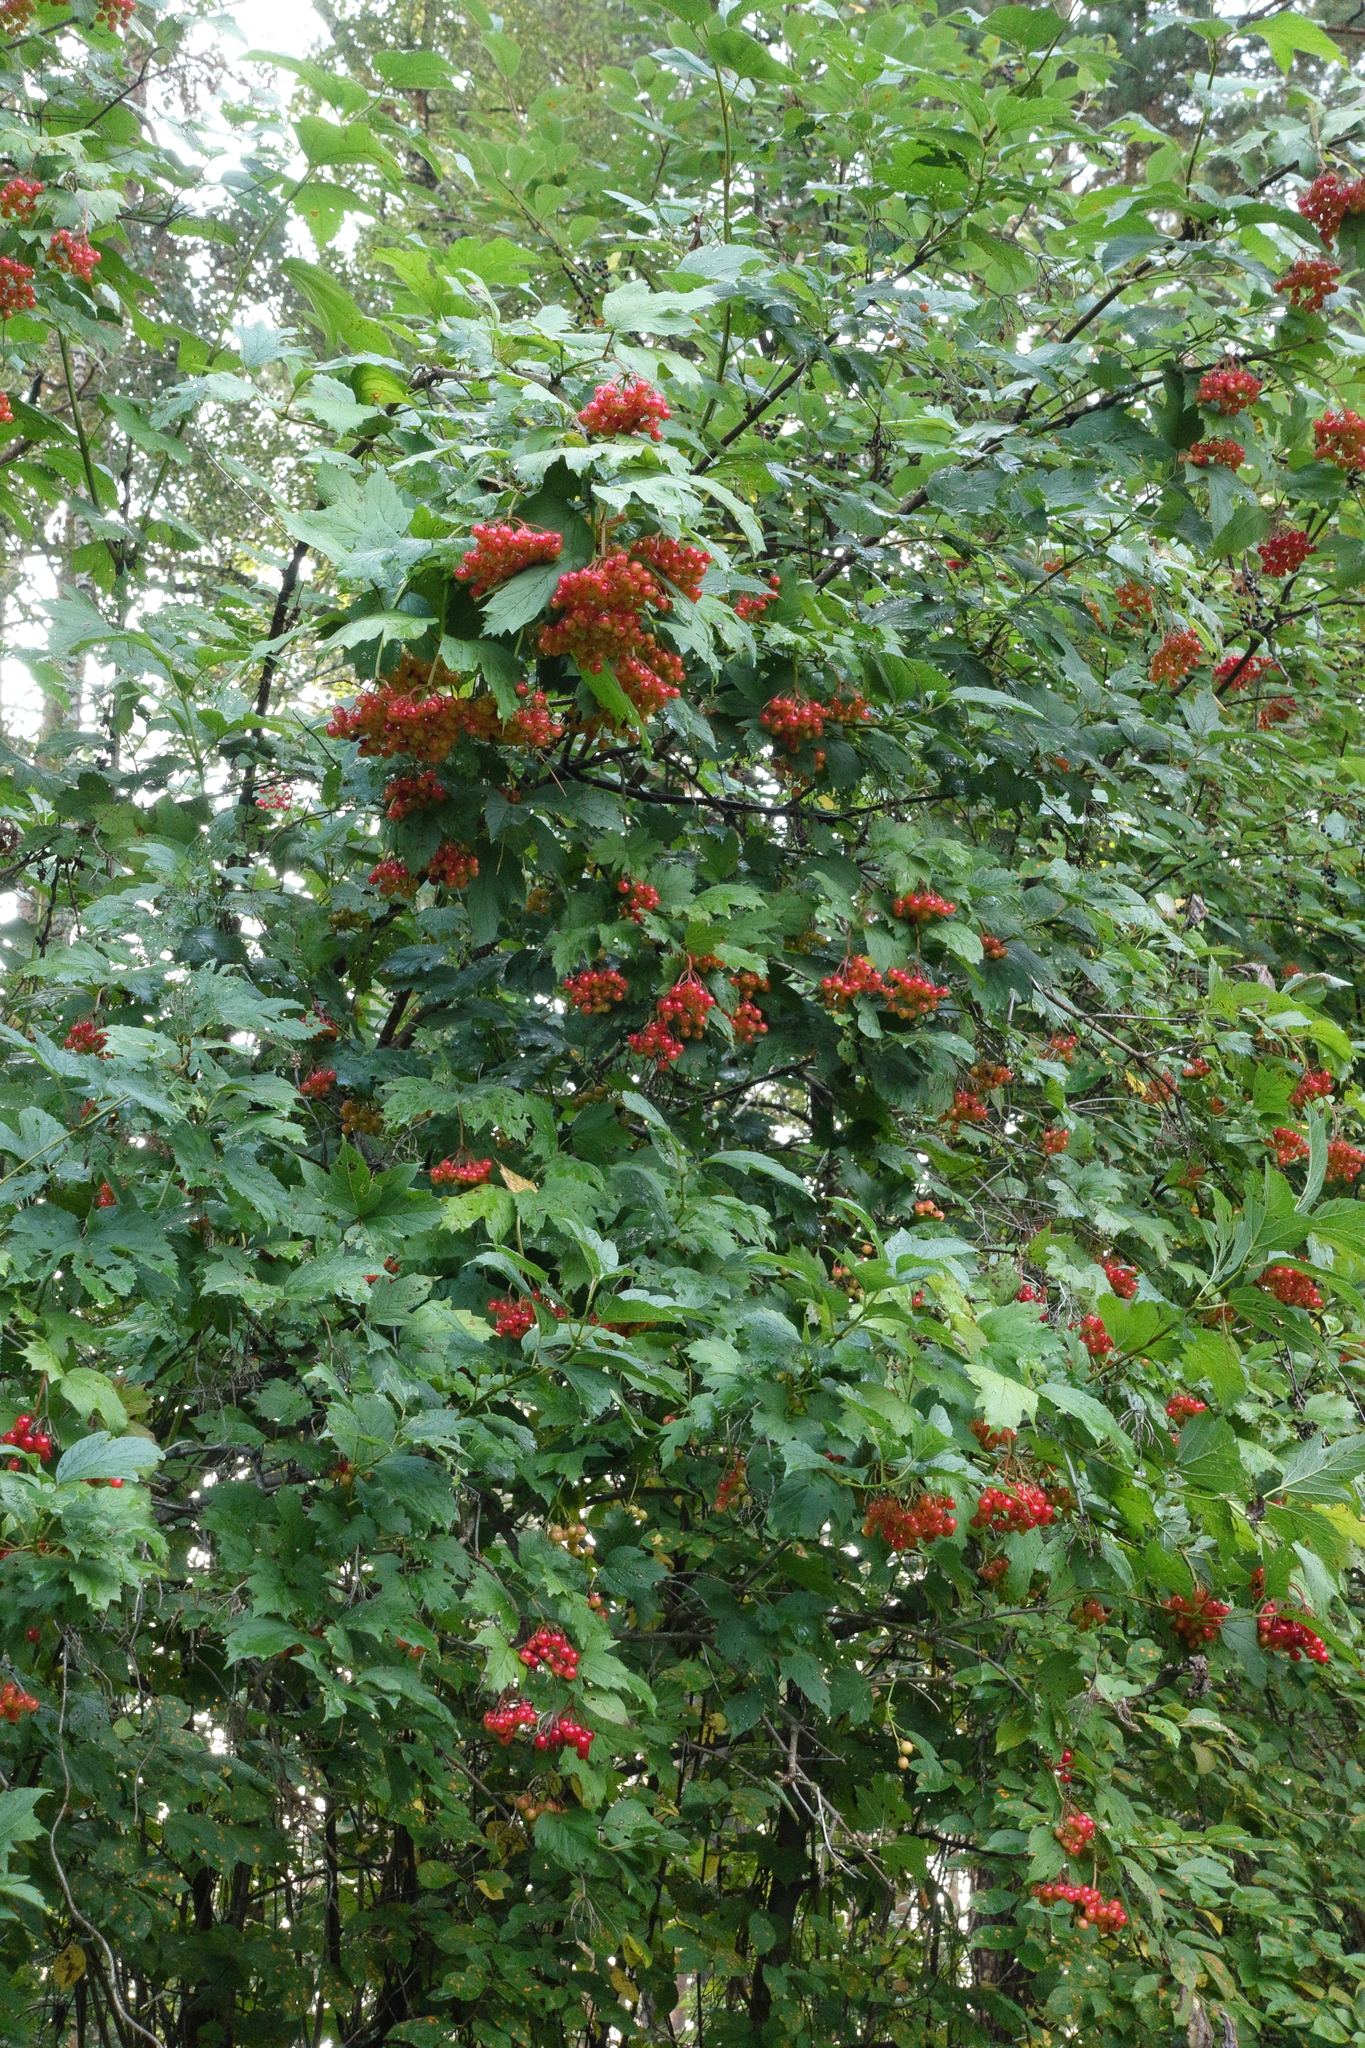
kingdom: Plantae
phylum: Tracheophyta
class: Magnoliopsida
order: Dipsacales
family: Viburnaceae
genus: Viburnum
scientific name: Viburnum opulus
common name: Guelder-rose
